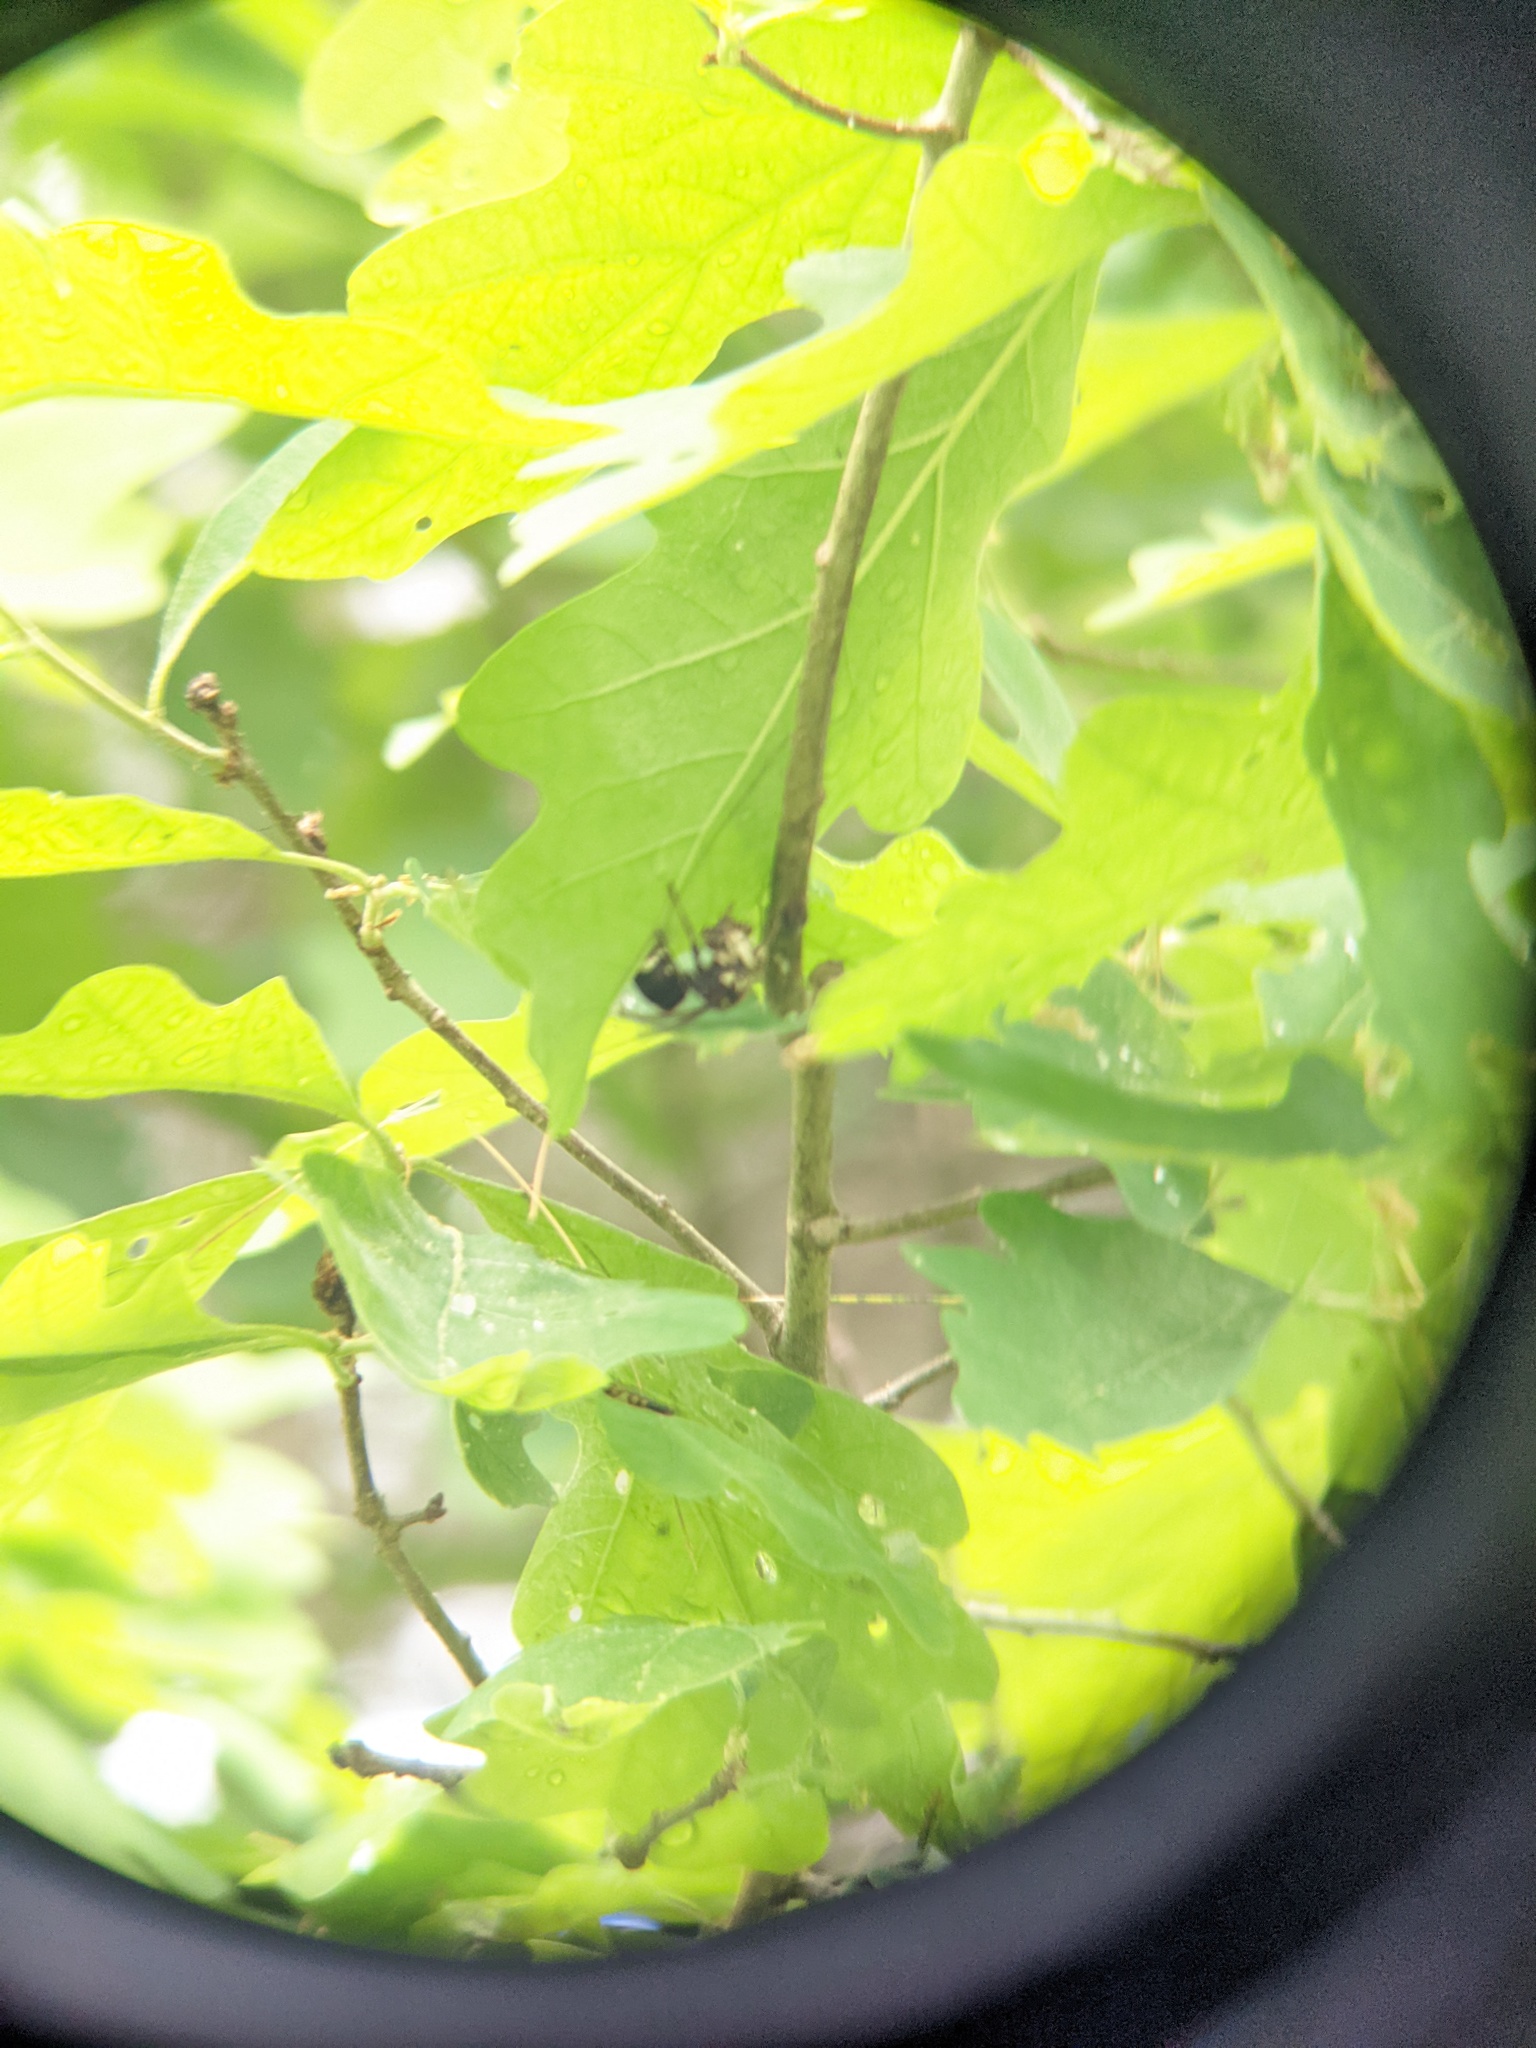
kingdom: Animalia
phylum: Arthropoda
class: Insecta
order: Hymenoptera
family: Vespidae
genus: Dolichovespula
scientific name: Dolichovespula maculata
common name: Bald-faced hornet
